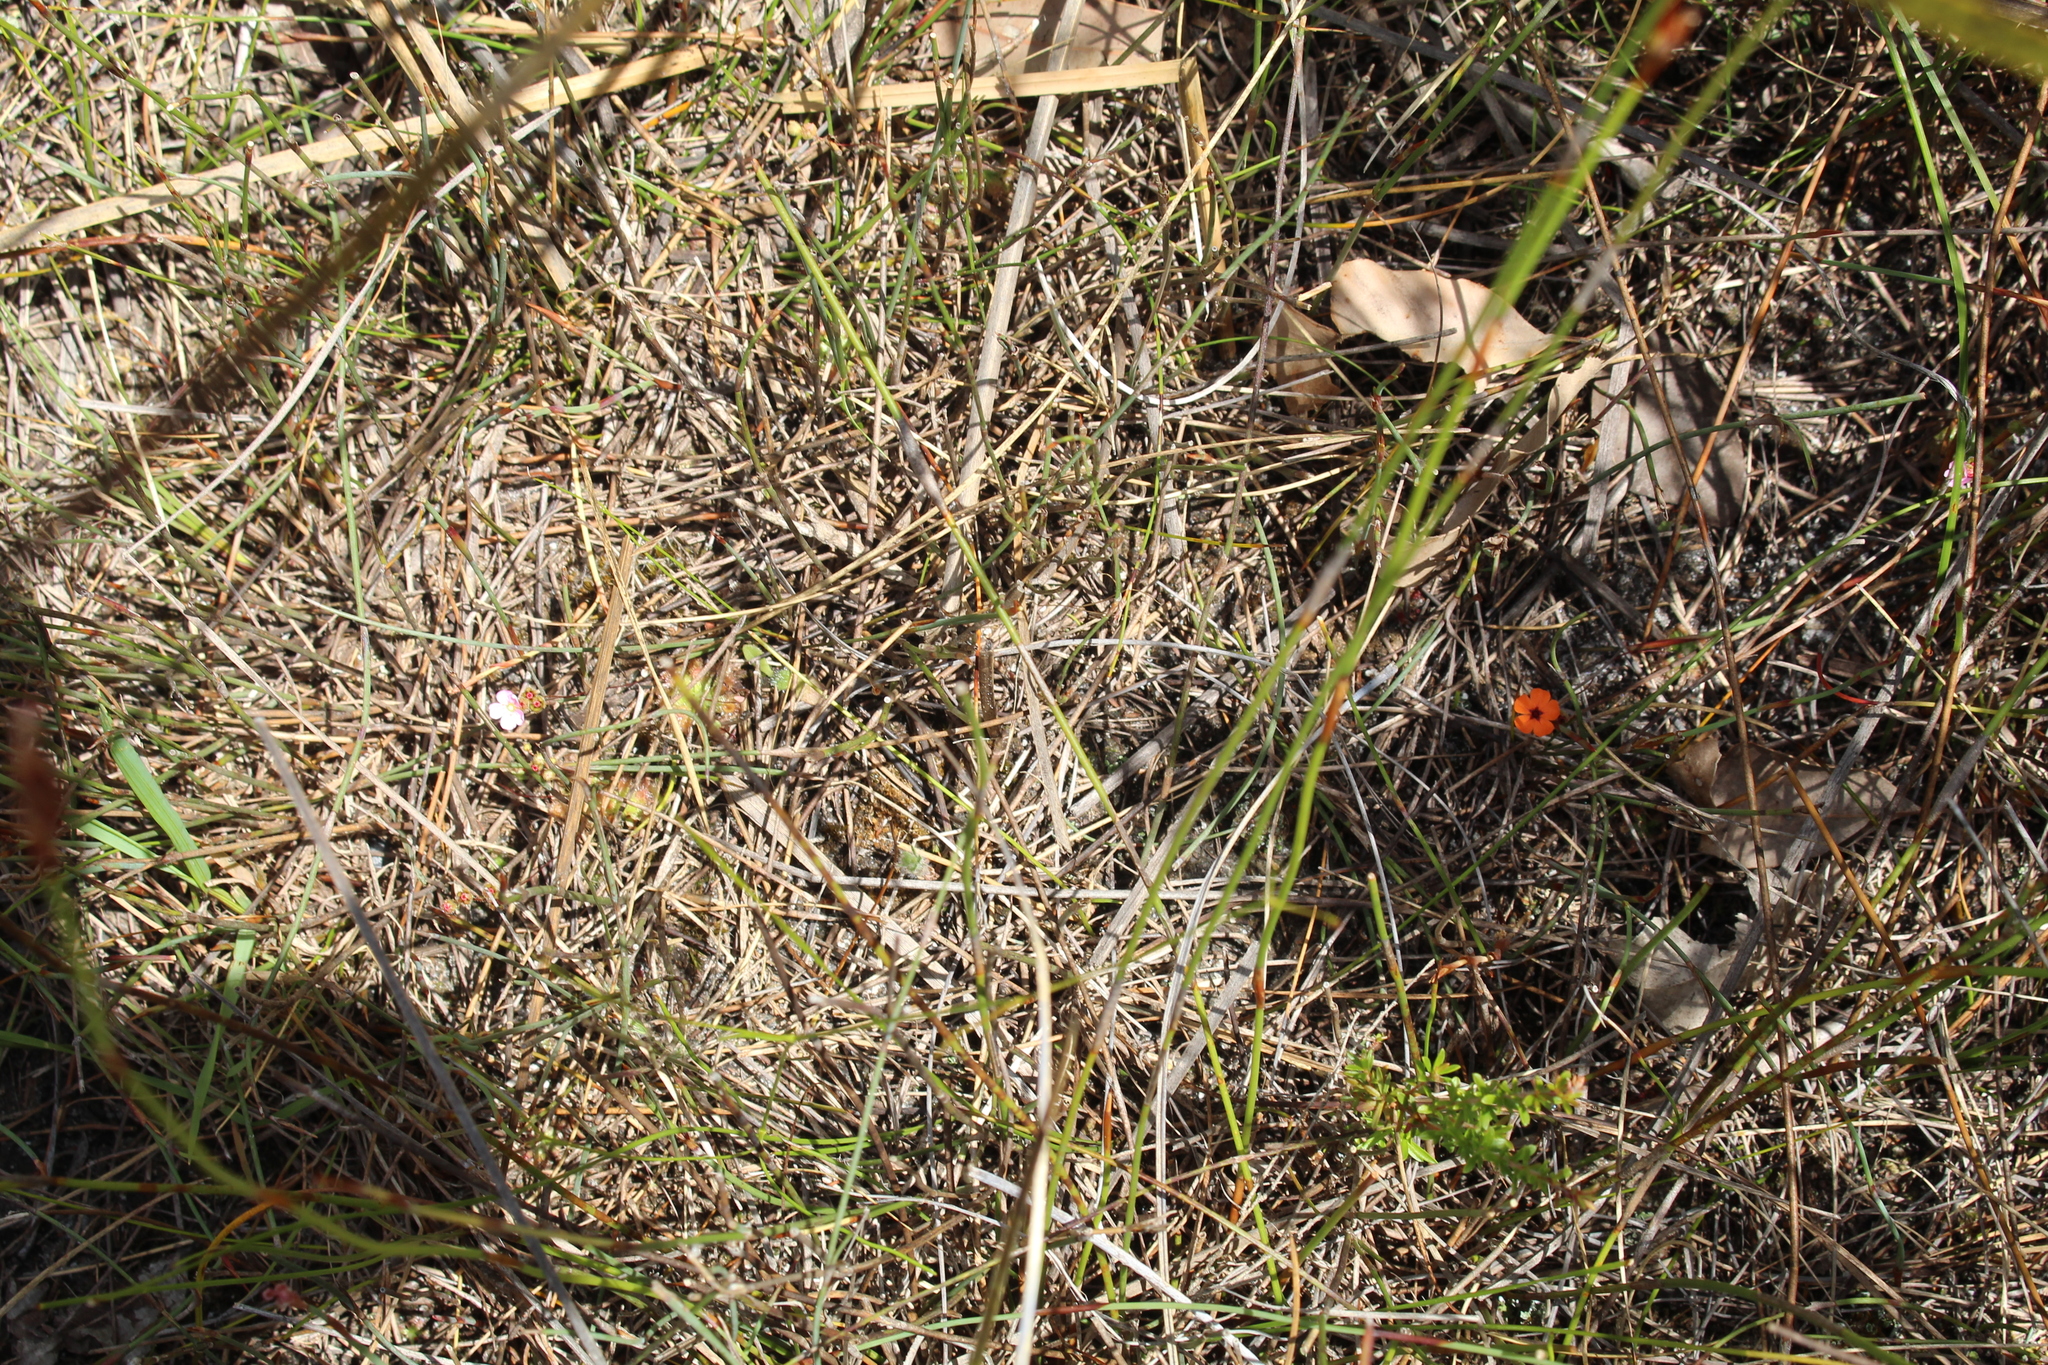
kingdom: Plantae
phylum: Tracheophyta
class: Magnoliopsida
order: Caryophyllales
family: Droseraceae
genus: Drosera
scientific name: Drosera pulchella
